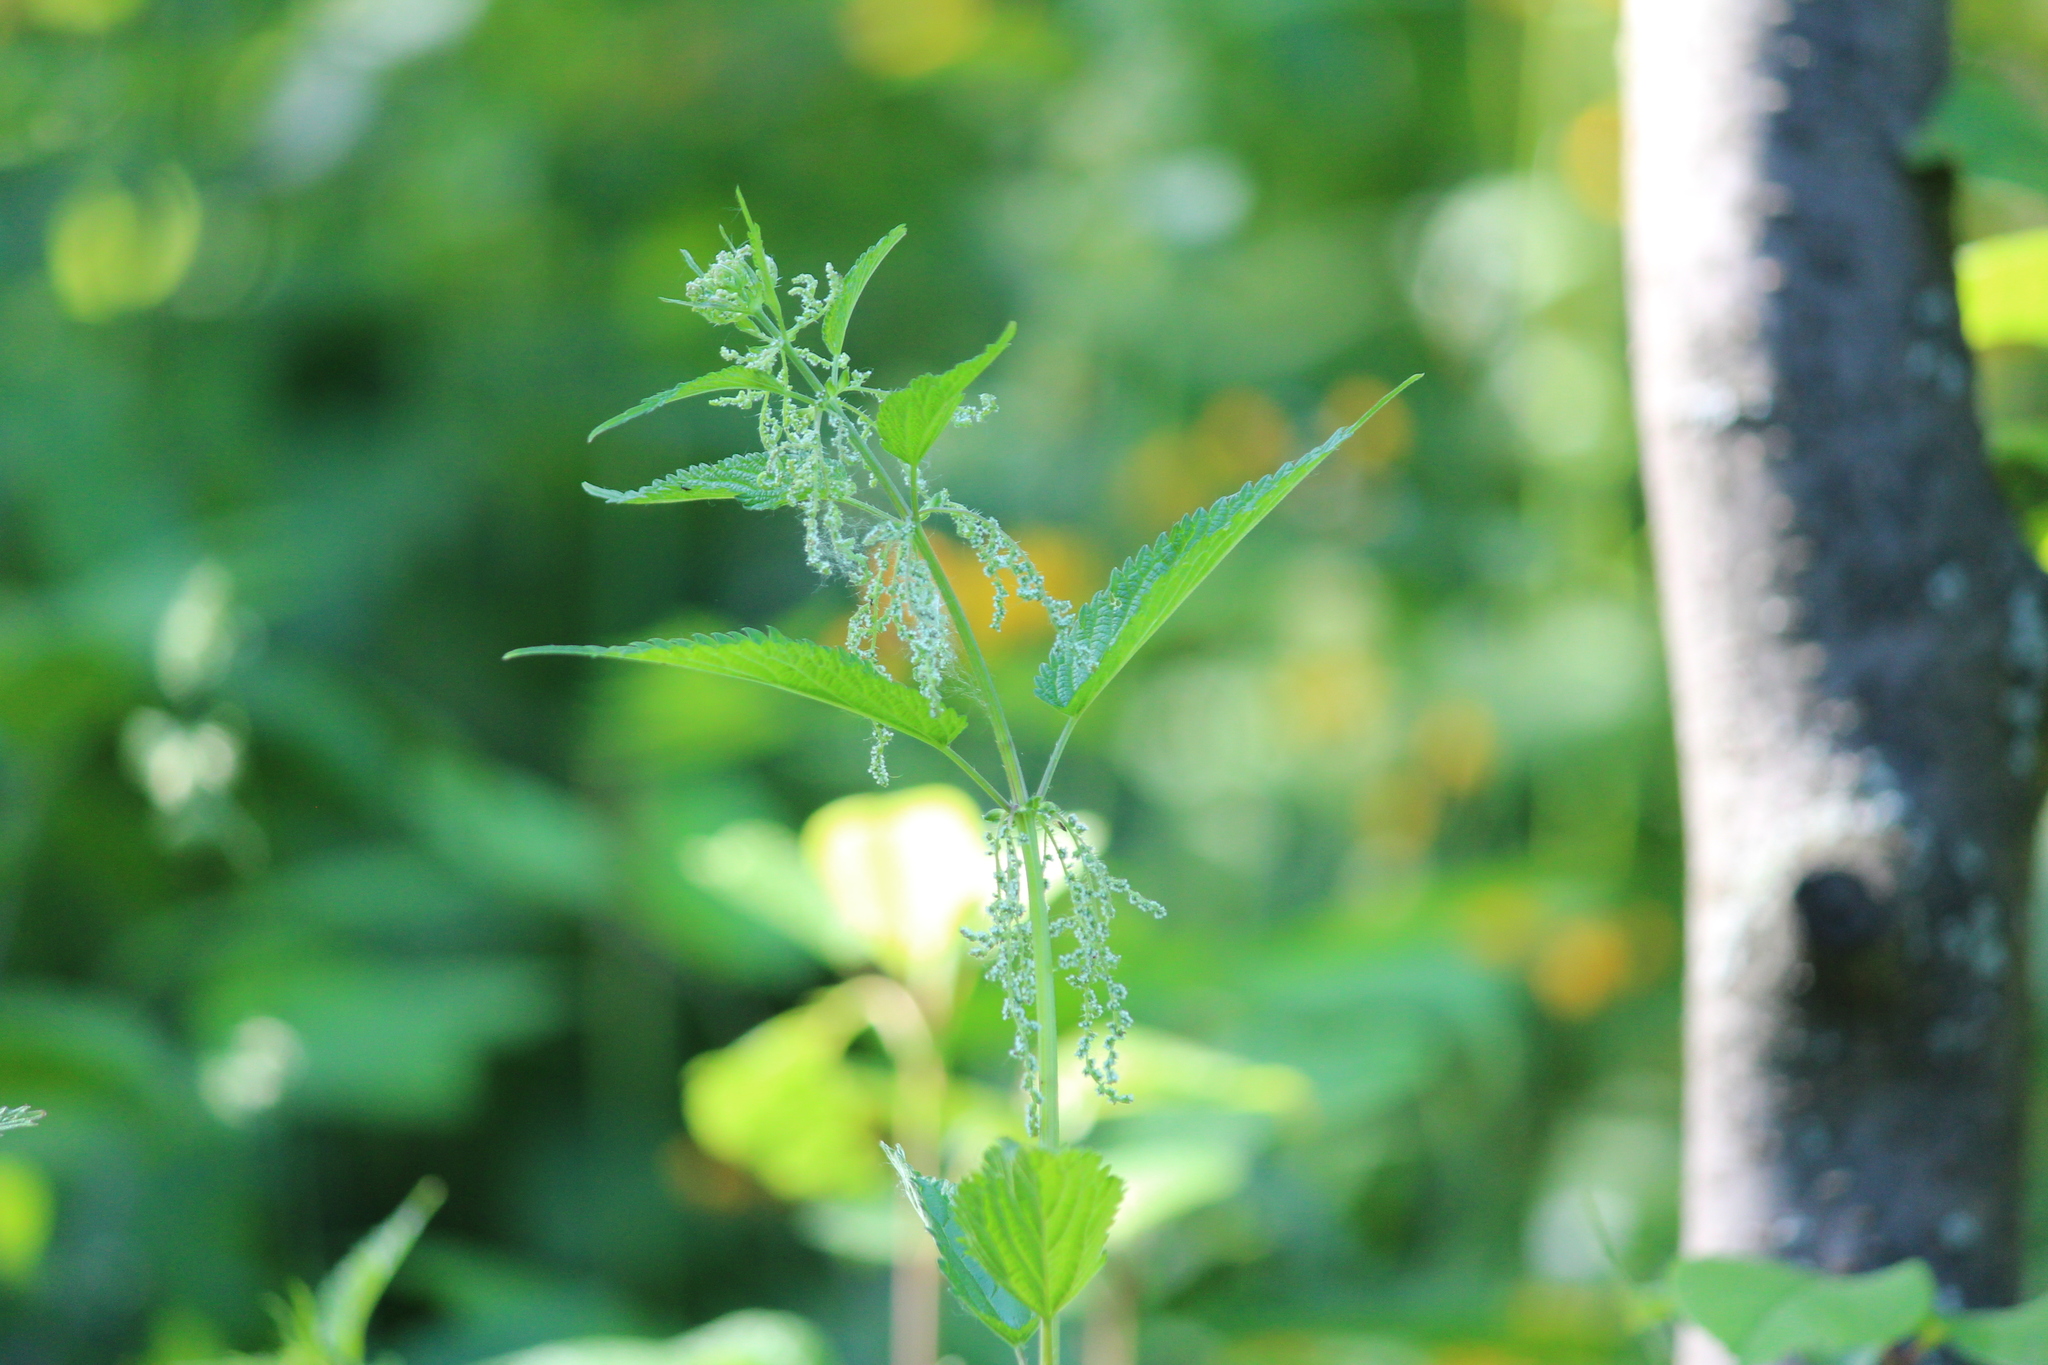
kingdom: Plantae
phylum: Tracheophyta
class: Magnoliopsida
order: Rosales
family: Urticaceae
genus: Urtica
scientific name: Urtica dioica
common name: Common nettle
